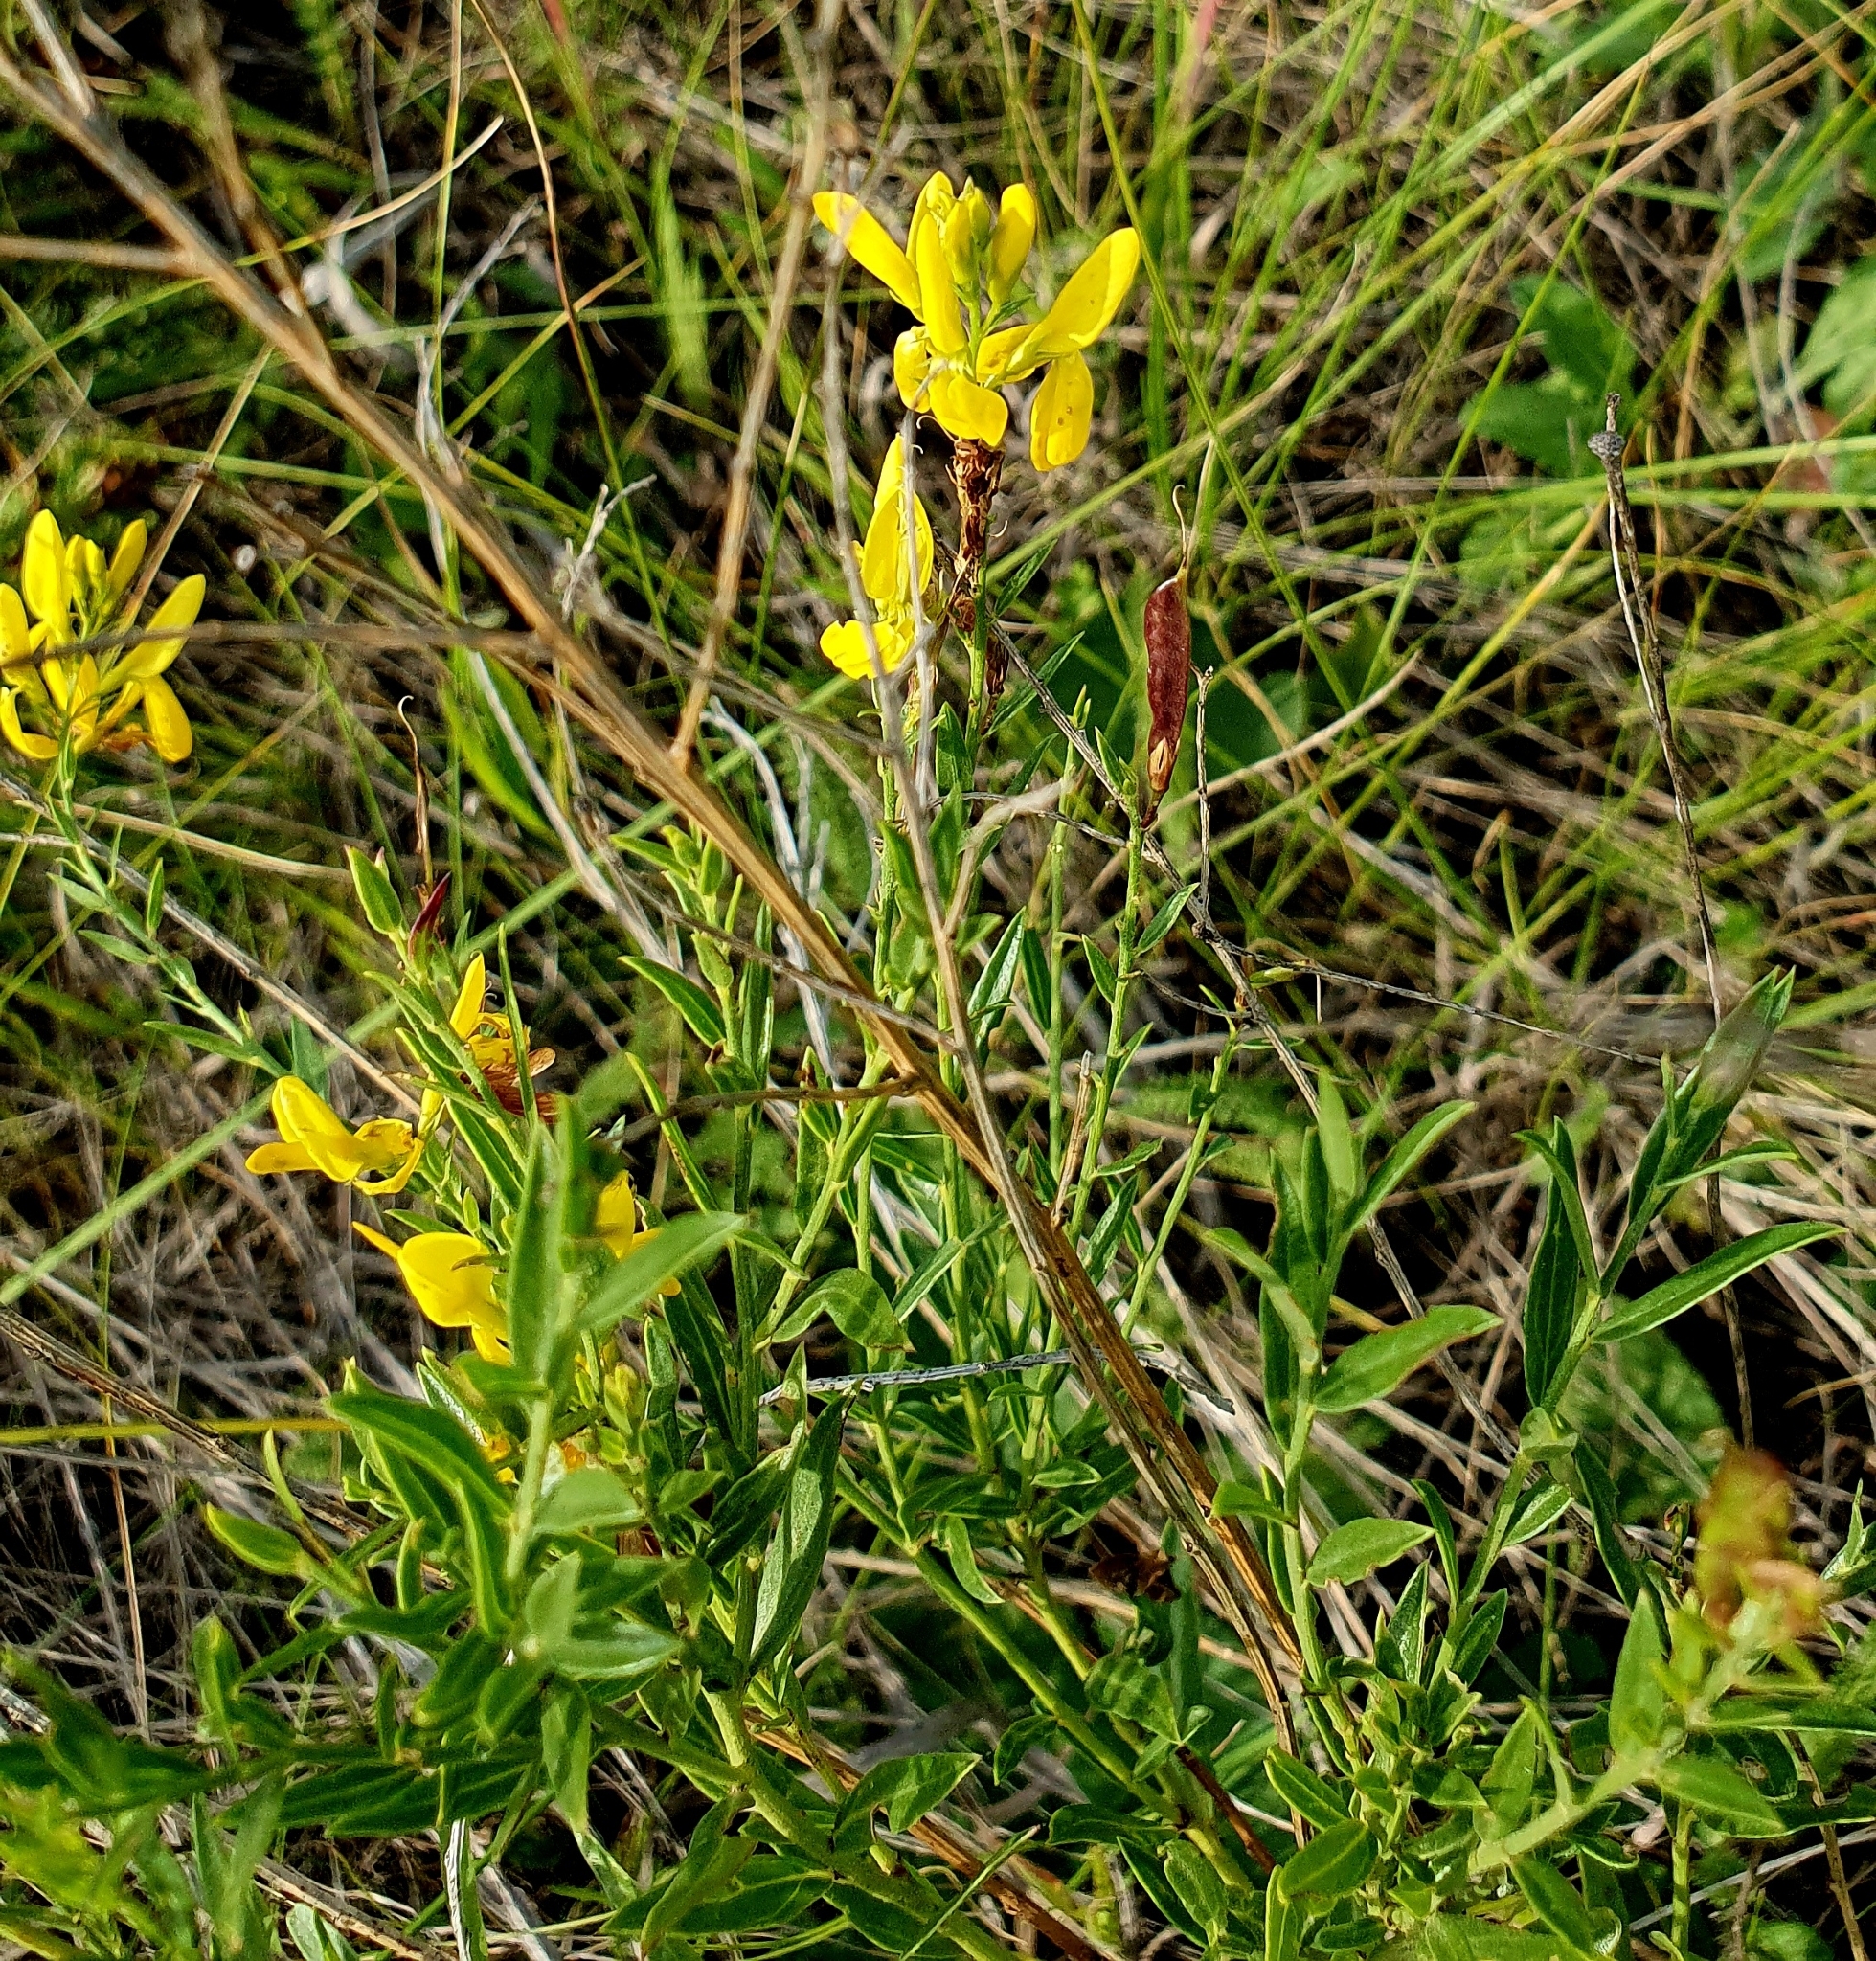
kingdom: Plantae
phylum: Tracheophyta
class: Magnoliopsida
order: Fabales
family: Fabaceae
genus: Genista
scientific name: Genista tinctoria
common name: Dyer's greenweed
